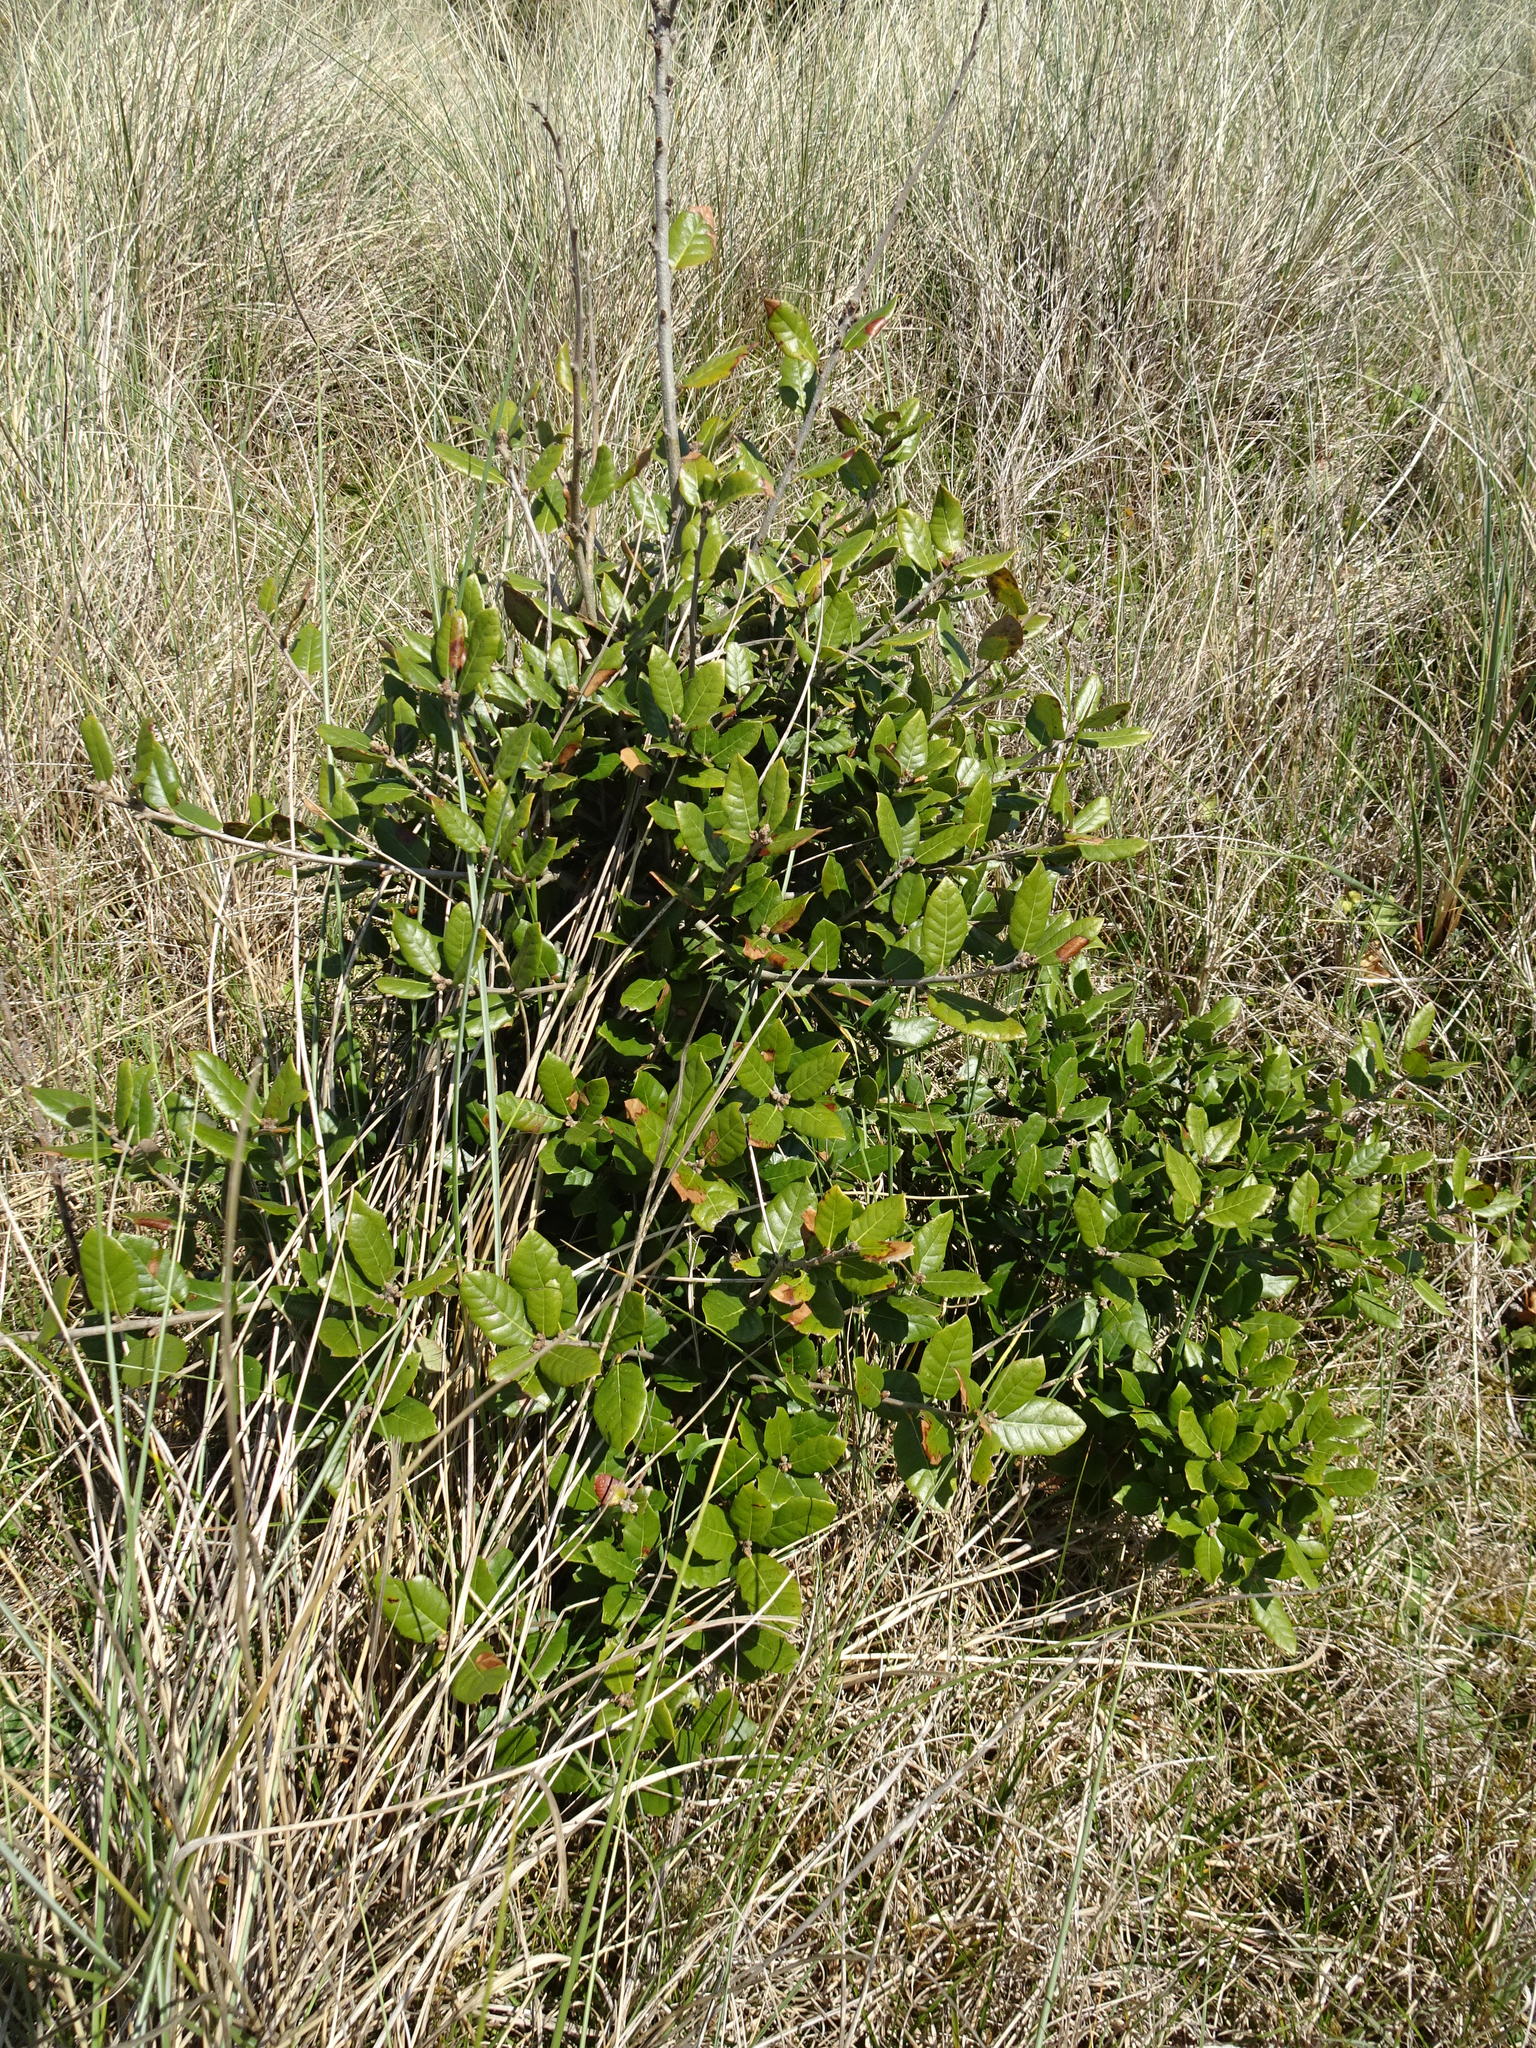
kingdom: Plantae
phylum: Tracheophyta
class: Magnoliopsida
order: Fagales
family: Fagaceae
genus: Quercus
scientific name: Quercus ilex
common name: Evergreen oak
